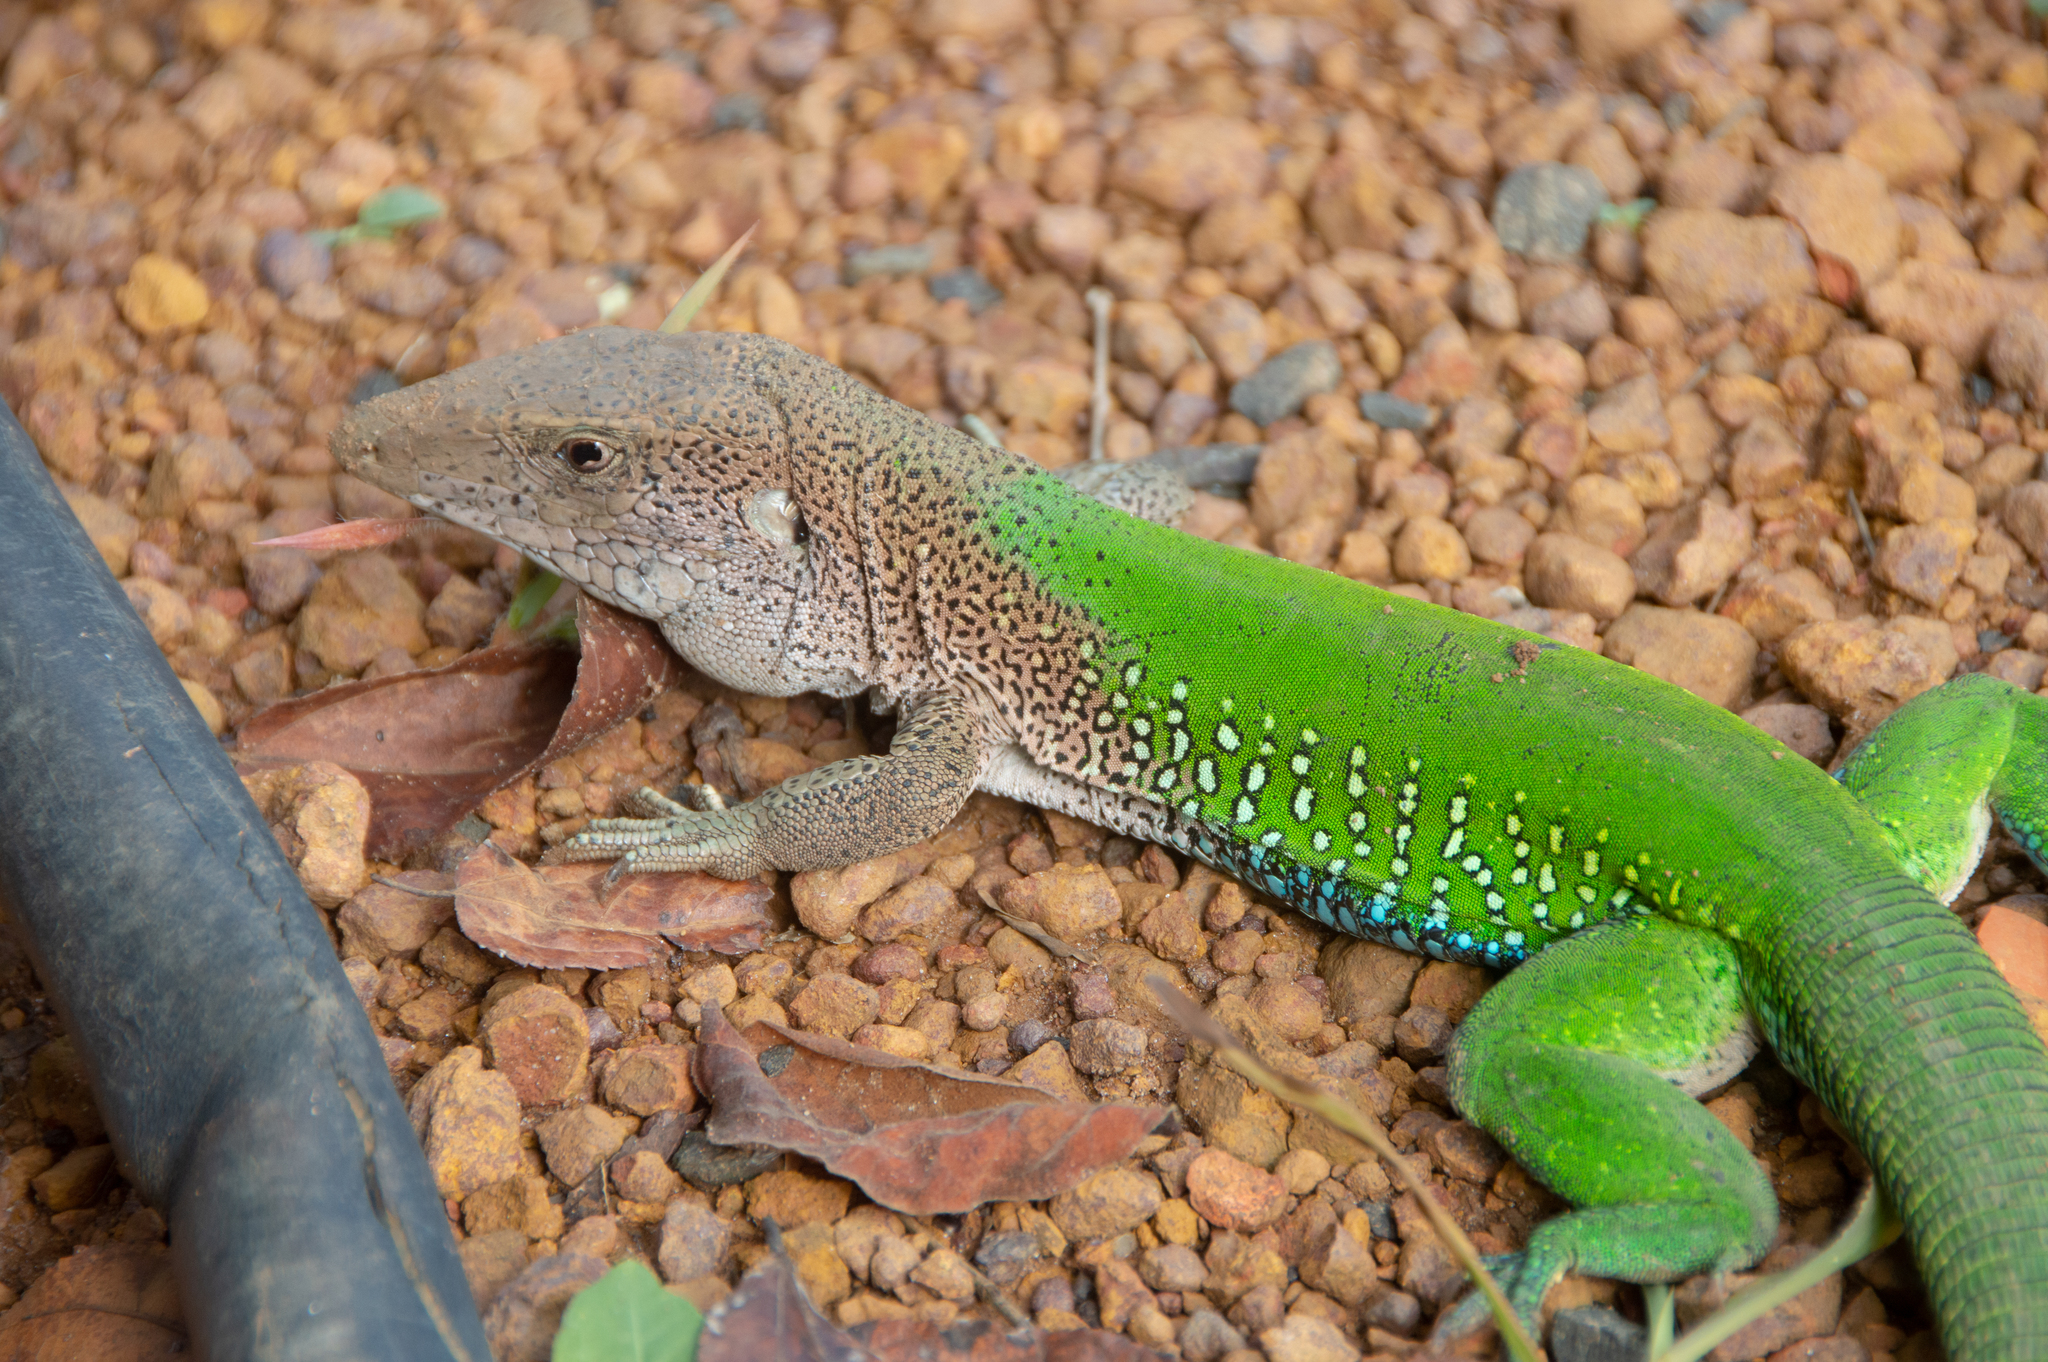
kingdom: Animalia
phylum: Chordata
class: Squamata
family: Teiidae
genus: Ameiva
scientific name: Ameiva ameiva
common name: Giant ameiva
